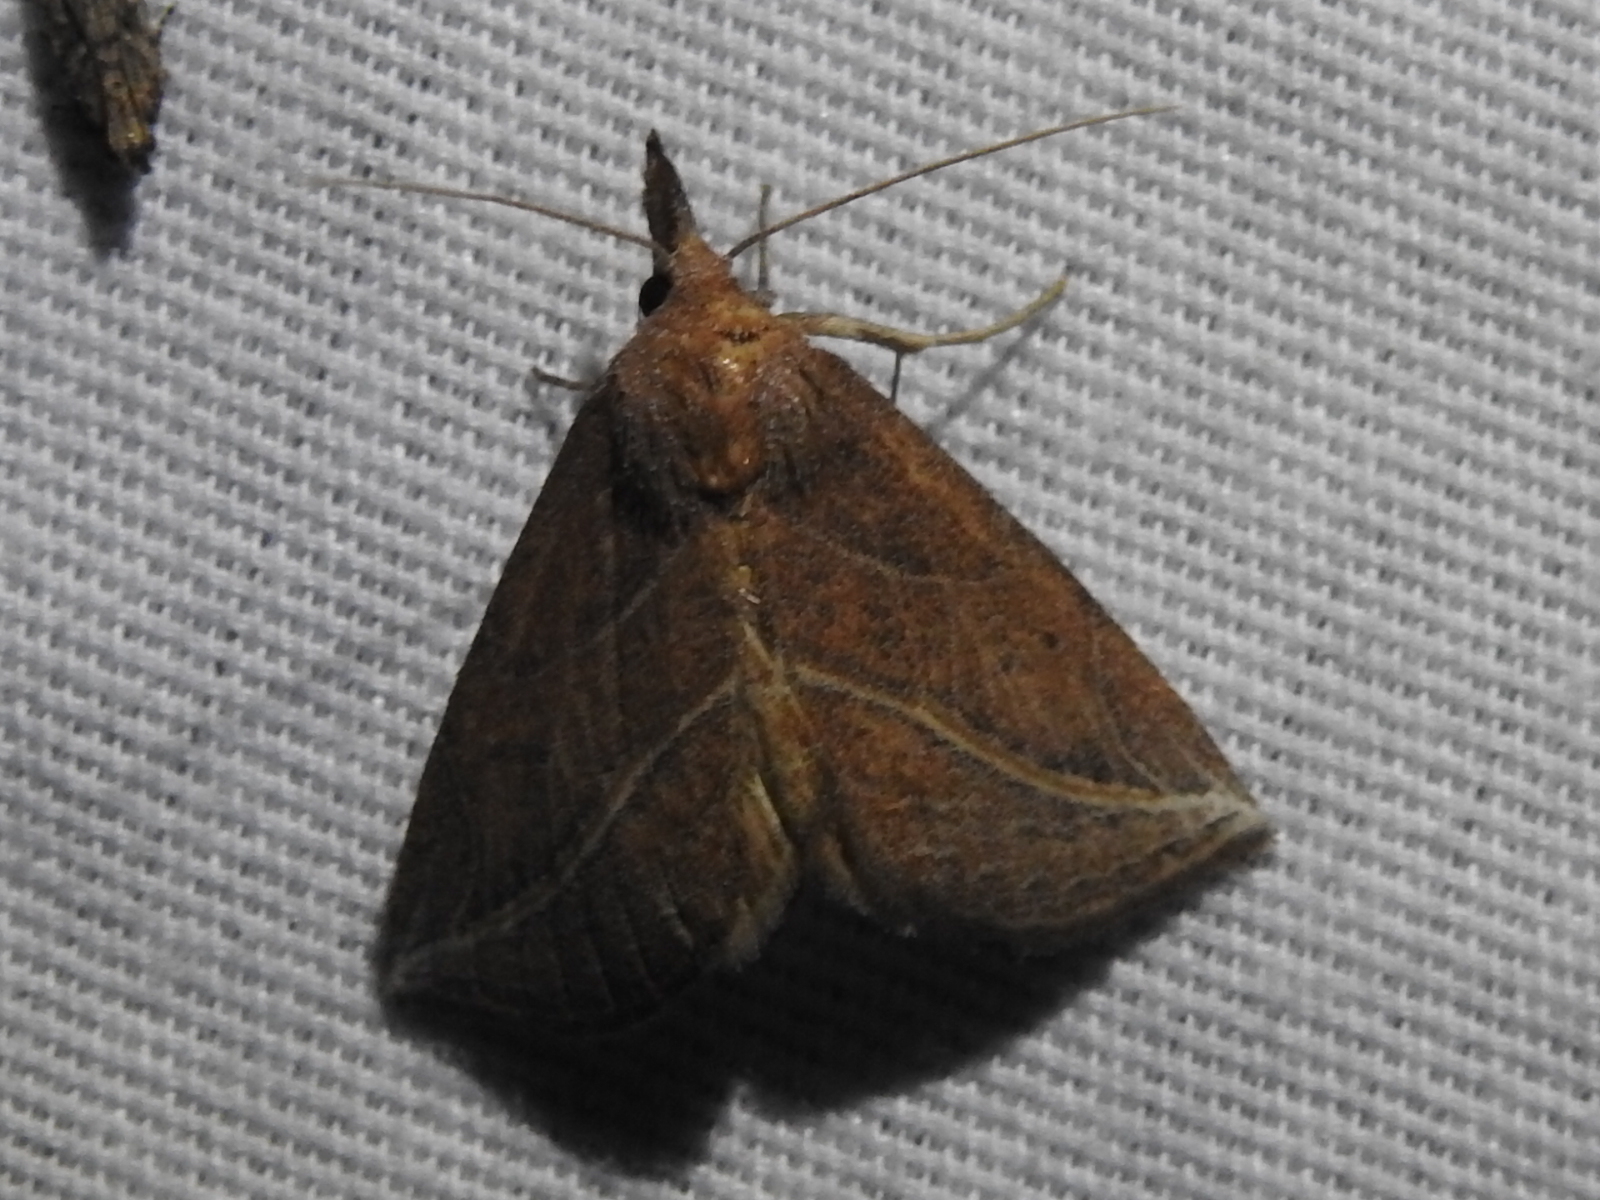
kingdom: Animalia
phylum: Arthropoda
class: Insecta
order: Lepidoptera
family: Erebidae
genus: Phyprosopus
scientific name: Phyprosopus callitrichoides
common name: Curved-lined owlet
